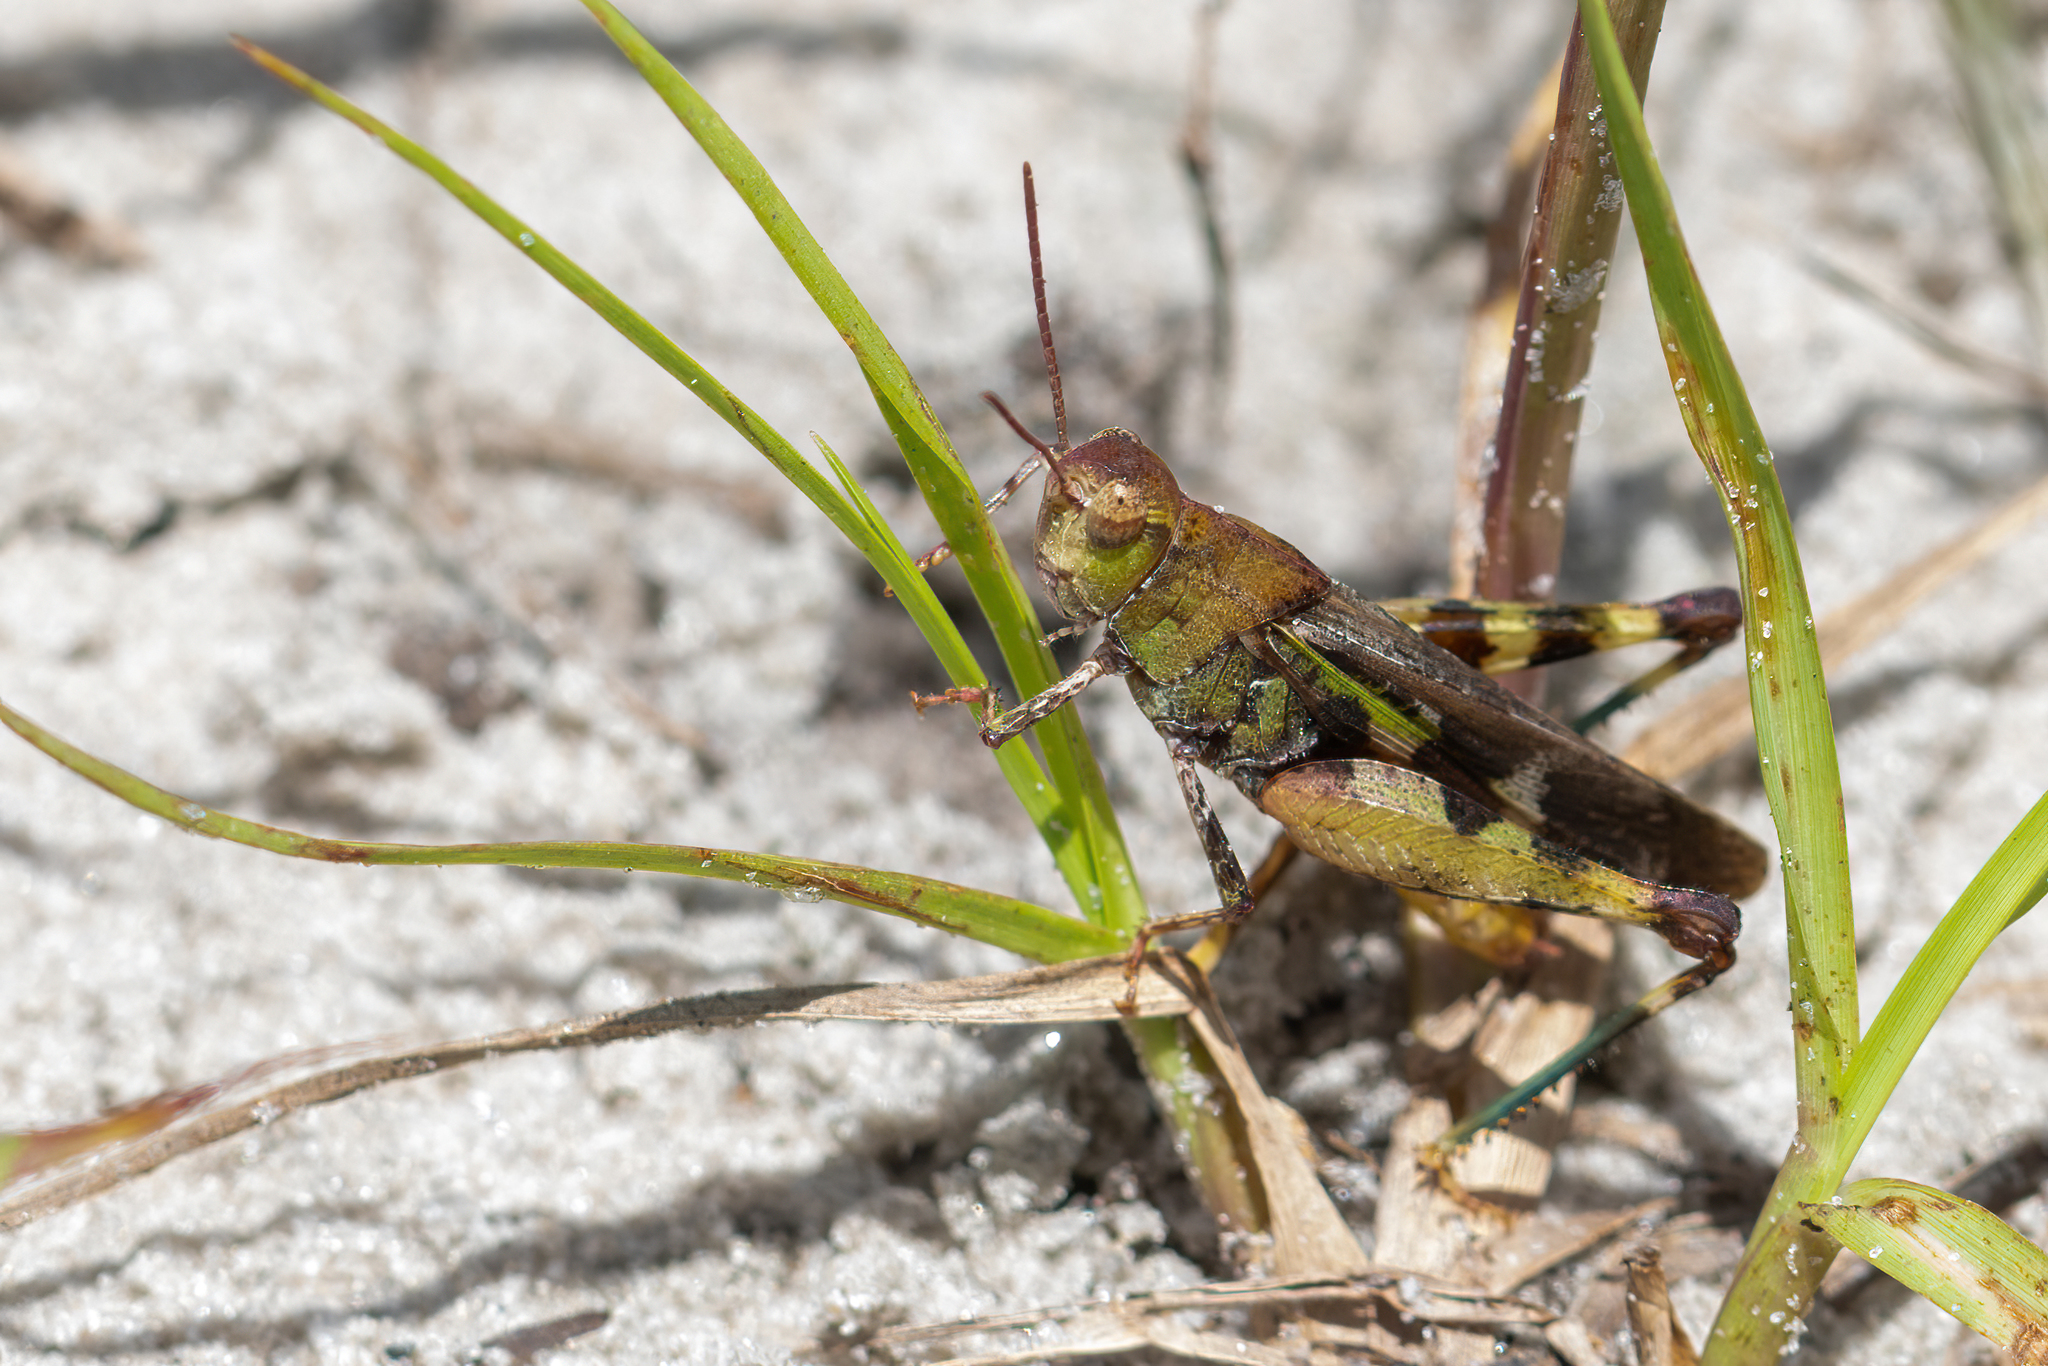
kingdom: Animalia
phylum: Arthropoda
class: Insecta
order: Orthoptera
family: Acrididae
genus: Chortophaga
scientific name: Chortophaga australior
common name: Southern green-striped grasshopper
